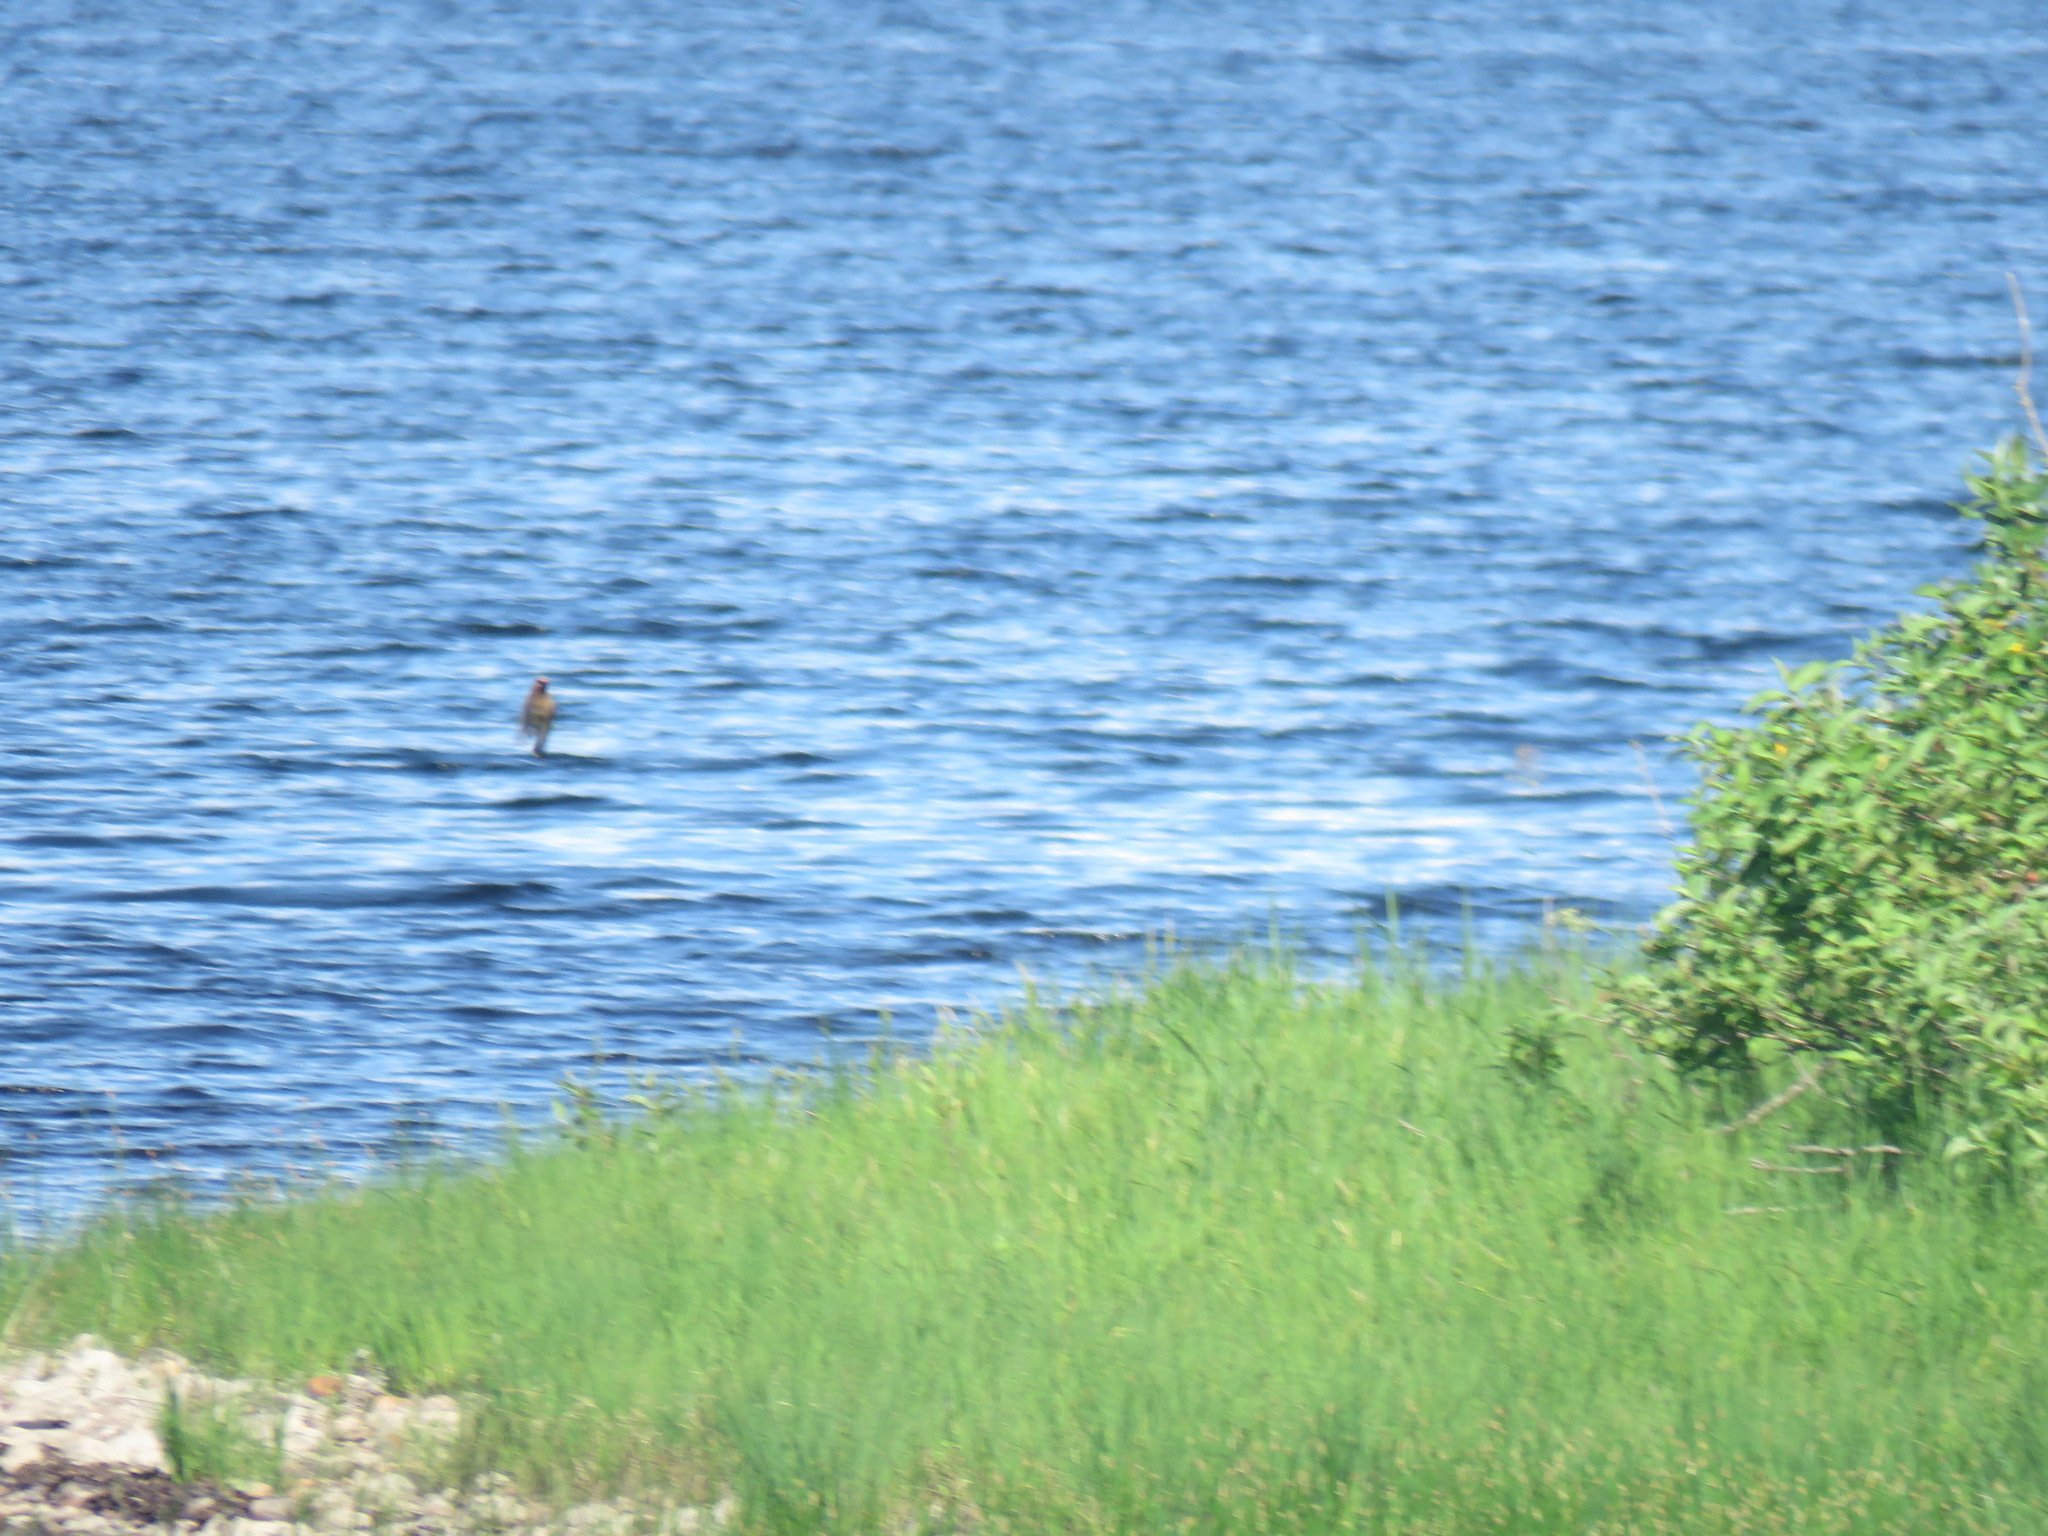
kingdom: Animalia
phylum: Chordata
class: Aves
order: Passeriformes
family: Bombycillidae
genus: Bombycilla
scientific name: Bombycilla cedrorum
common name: Cedar waxwing
